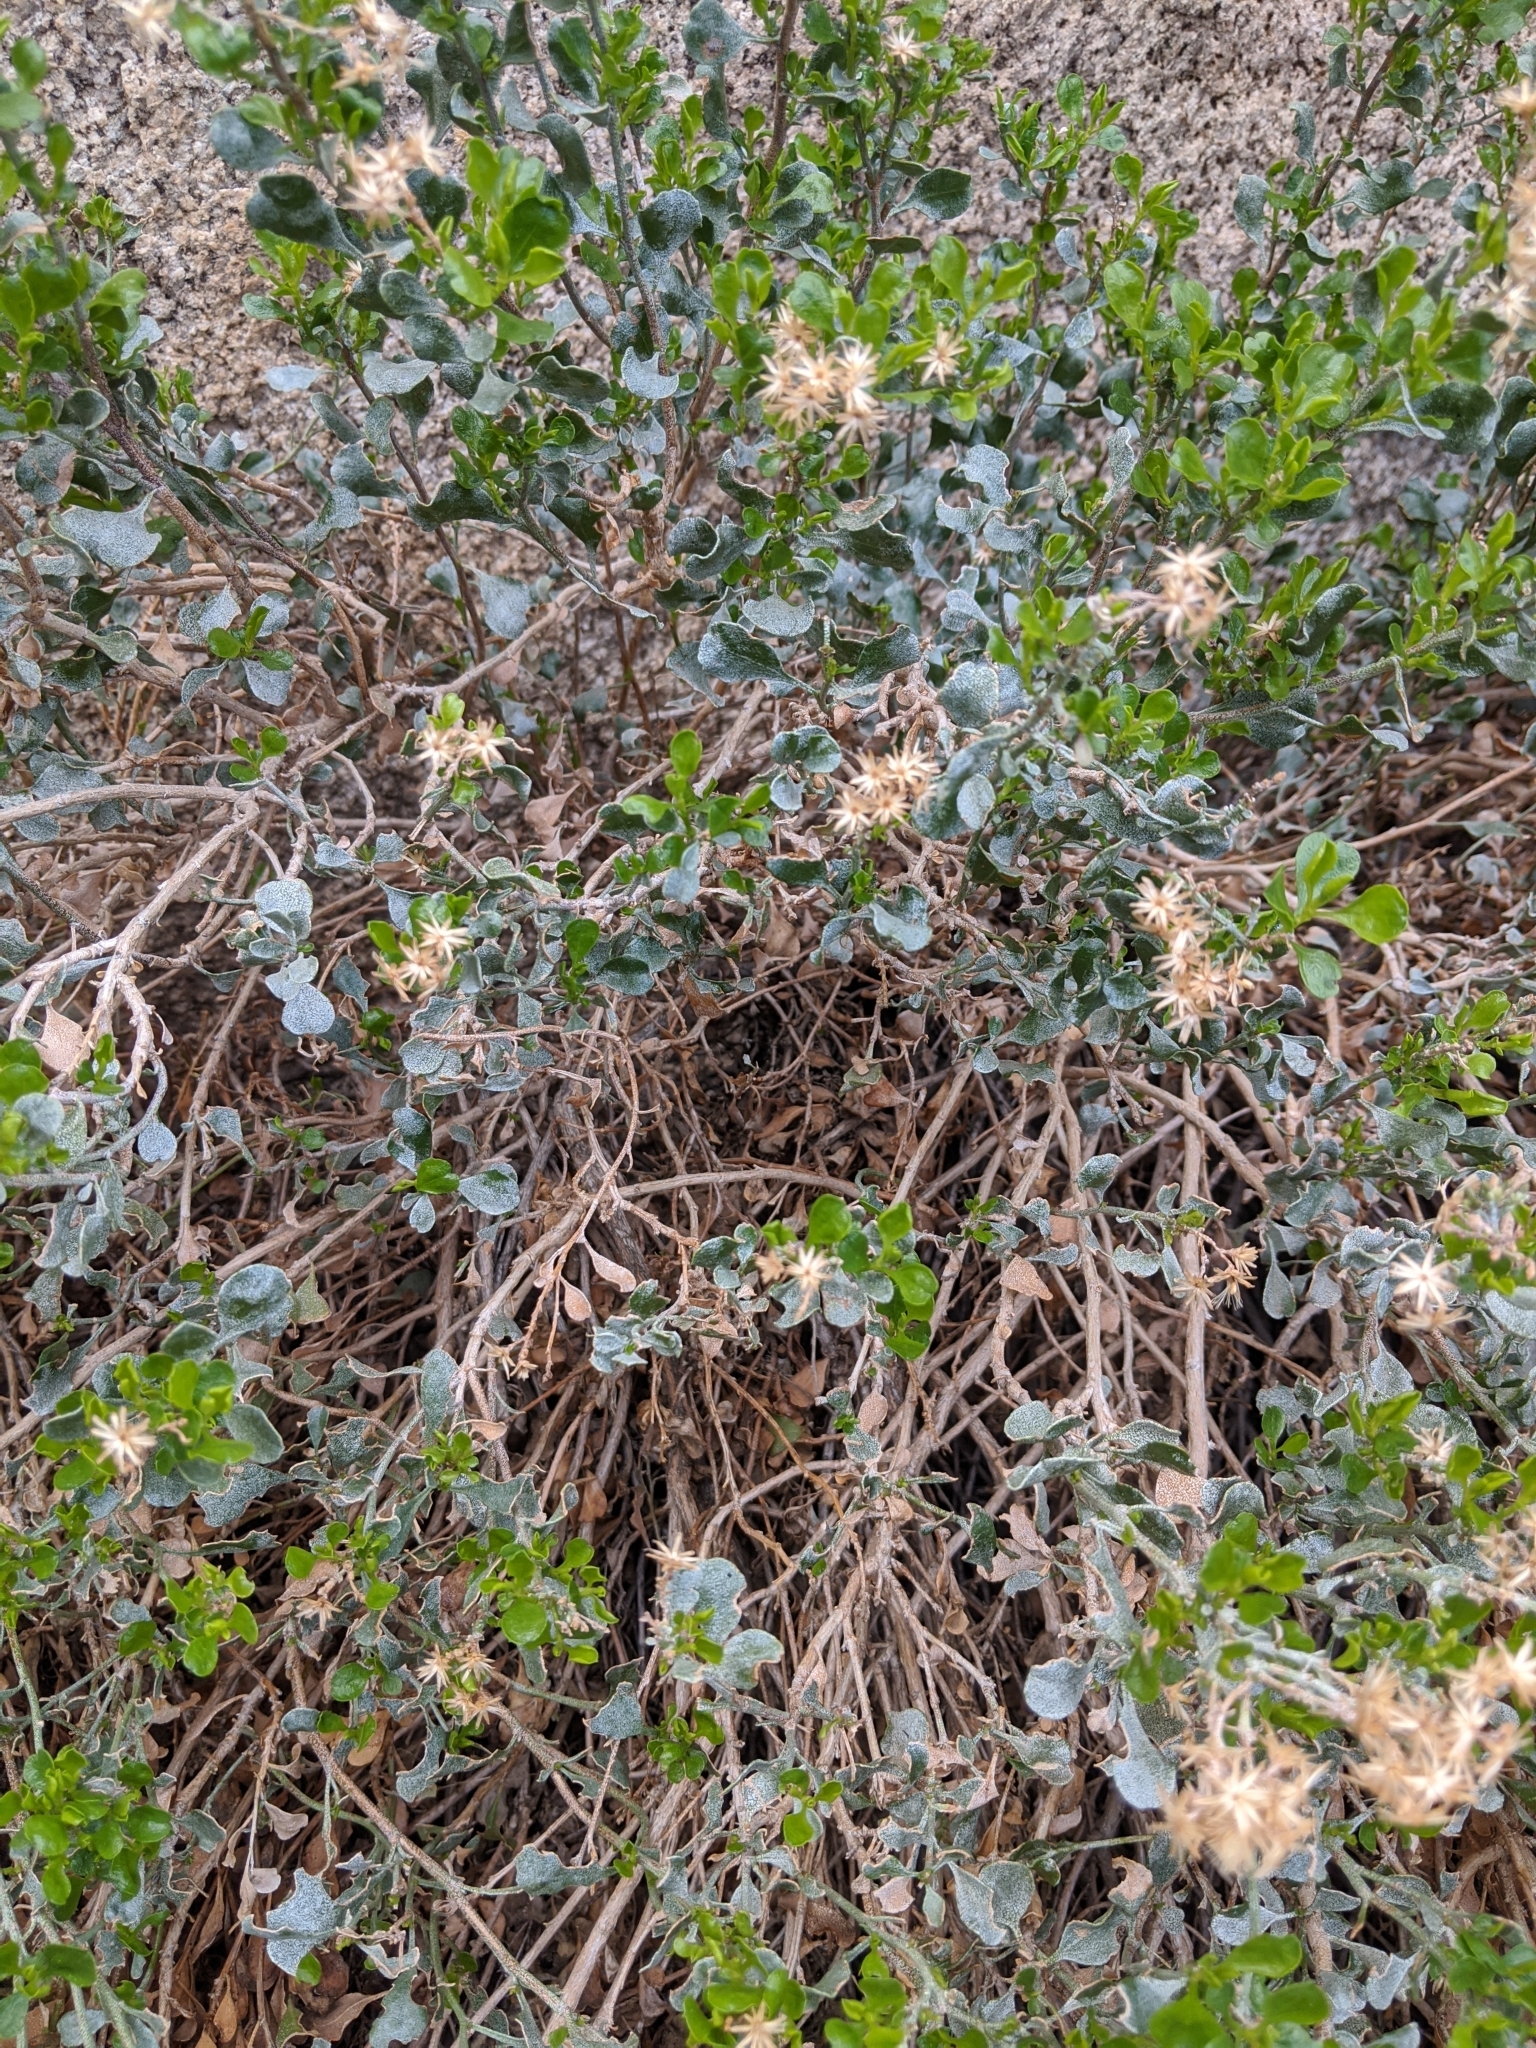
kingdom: Plantae
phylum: Tracheophyta
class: Magnoliopsida
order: Asterales
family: Asteraceae
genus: Ericameria
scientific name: Ericameria cuneata
